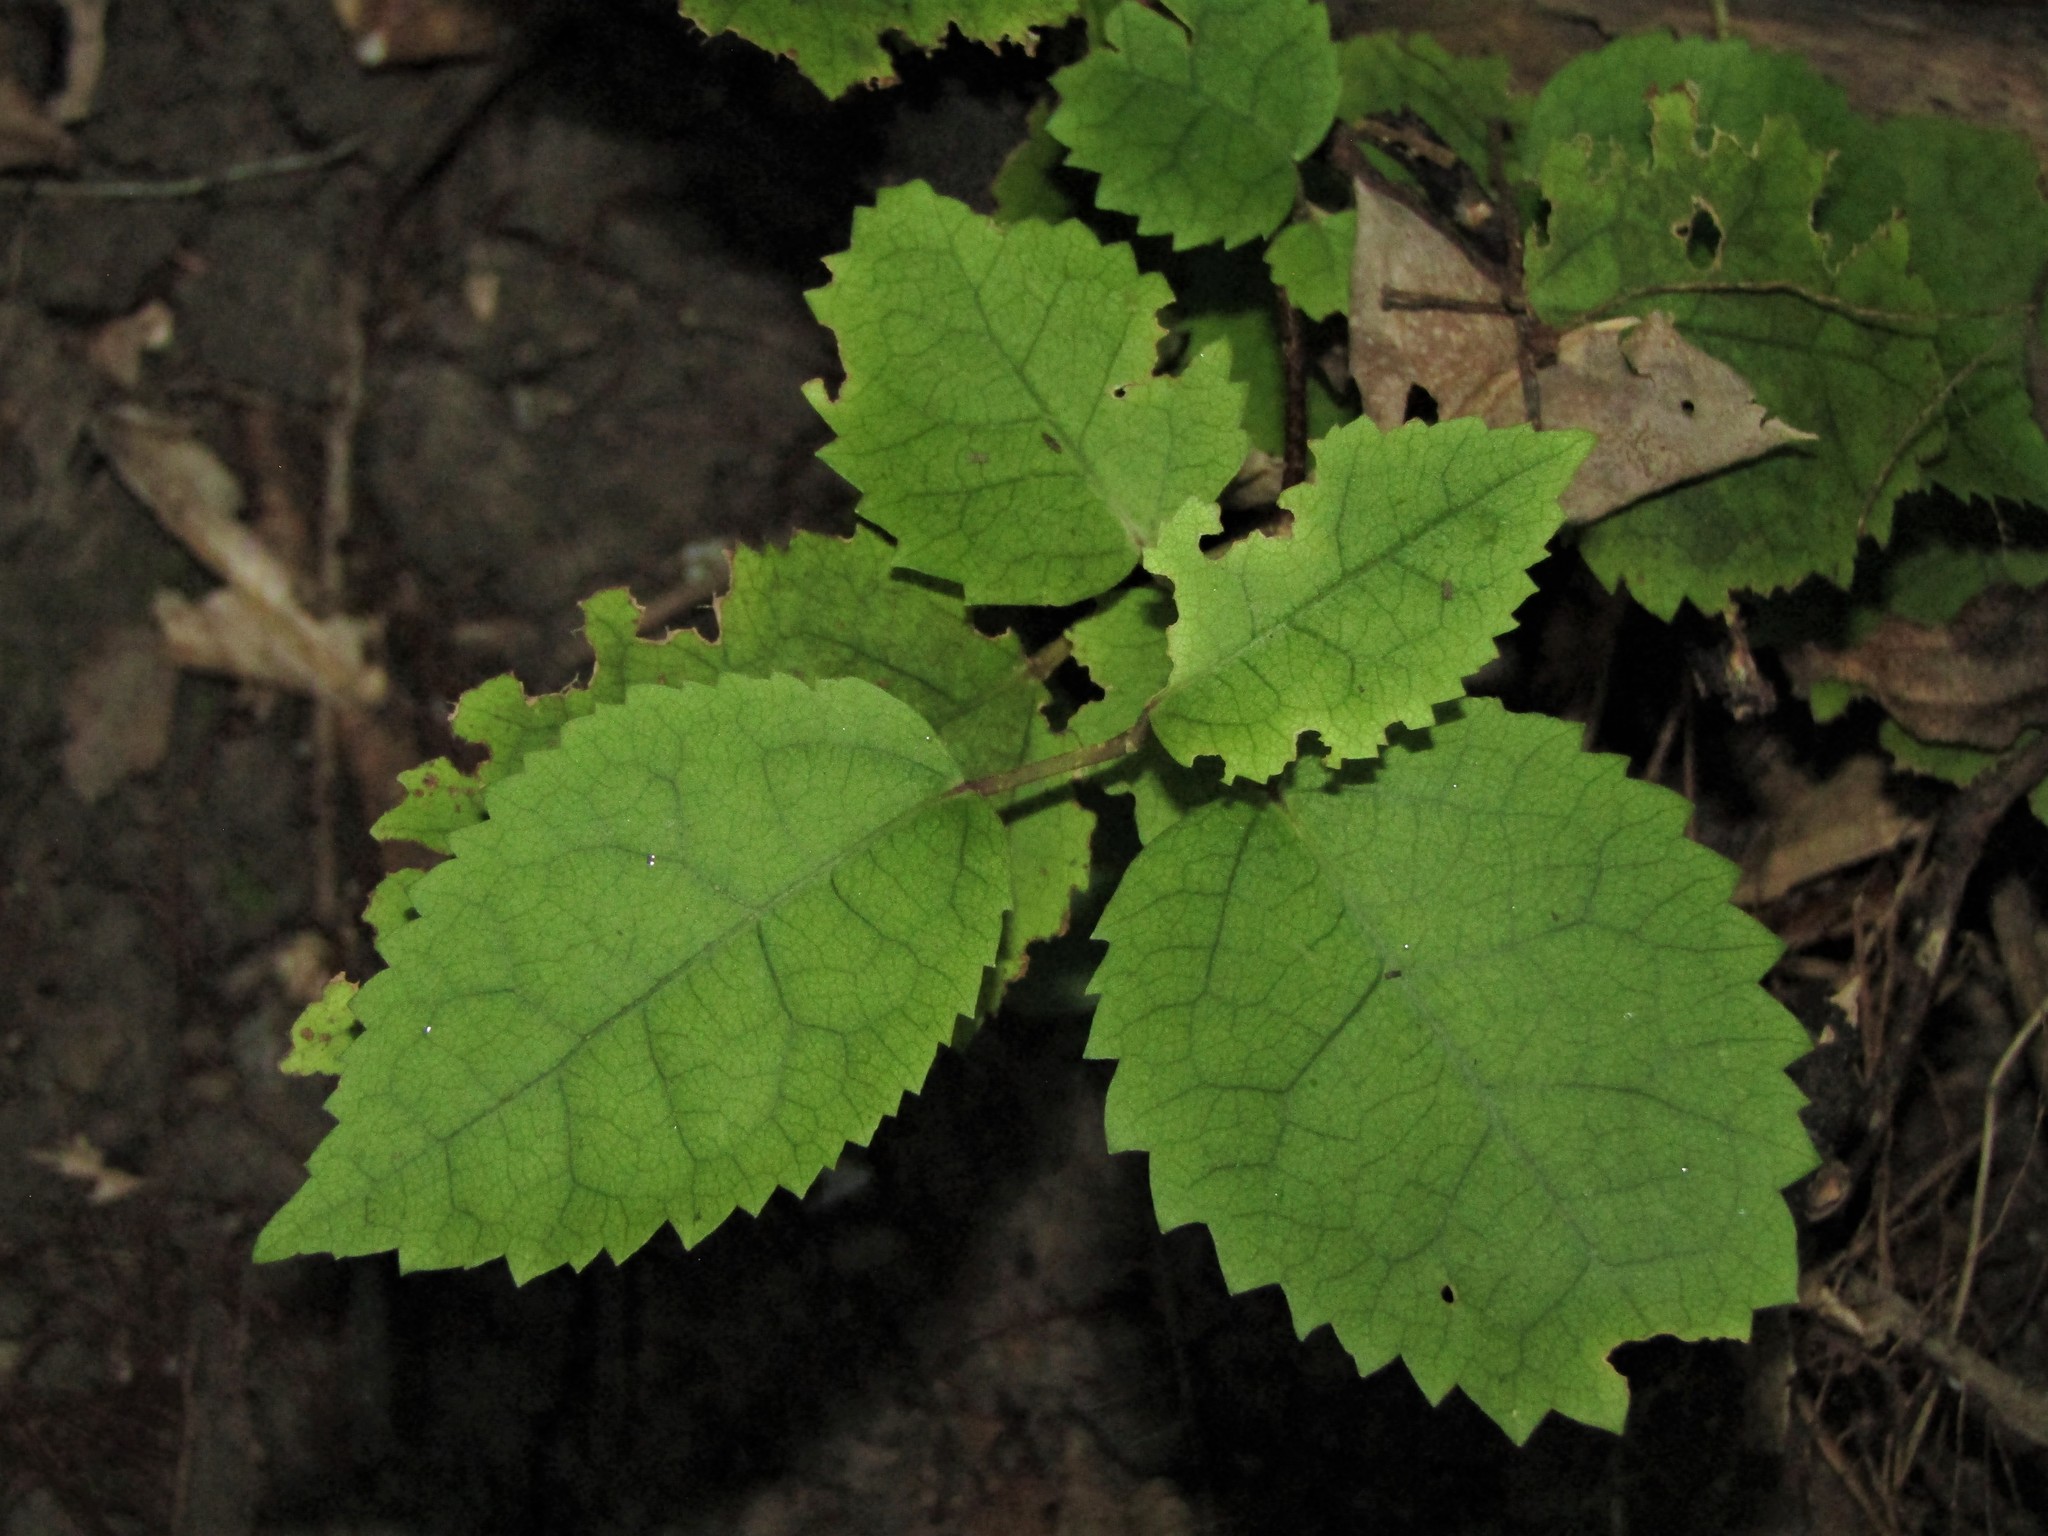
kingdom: Plantae
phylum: Tracheophyta
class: Magnoliopsida
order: Malvales
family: Malvaceae
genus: Hoheria
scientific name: Hoheria populnea
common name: Lacebark
